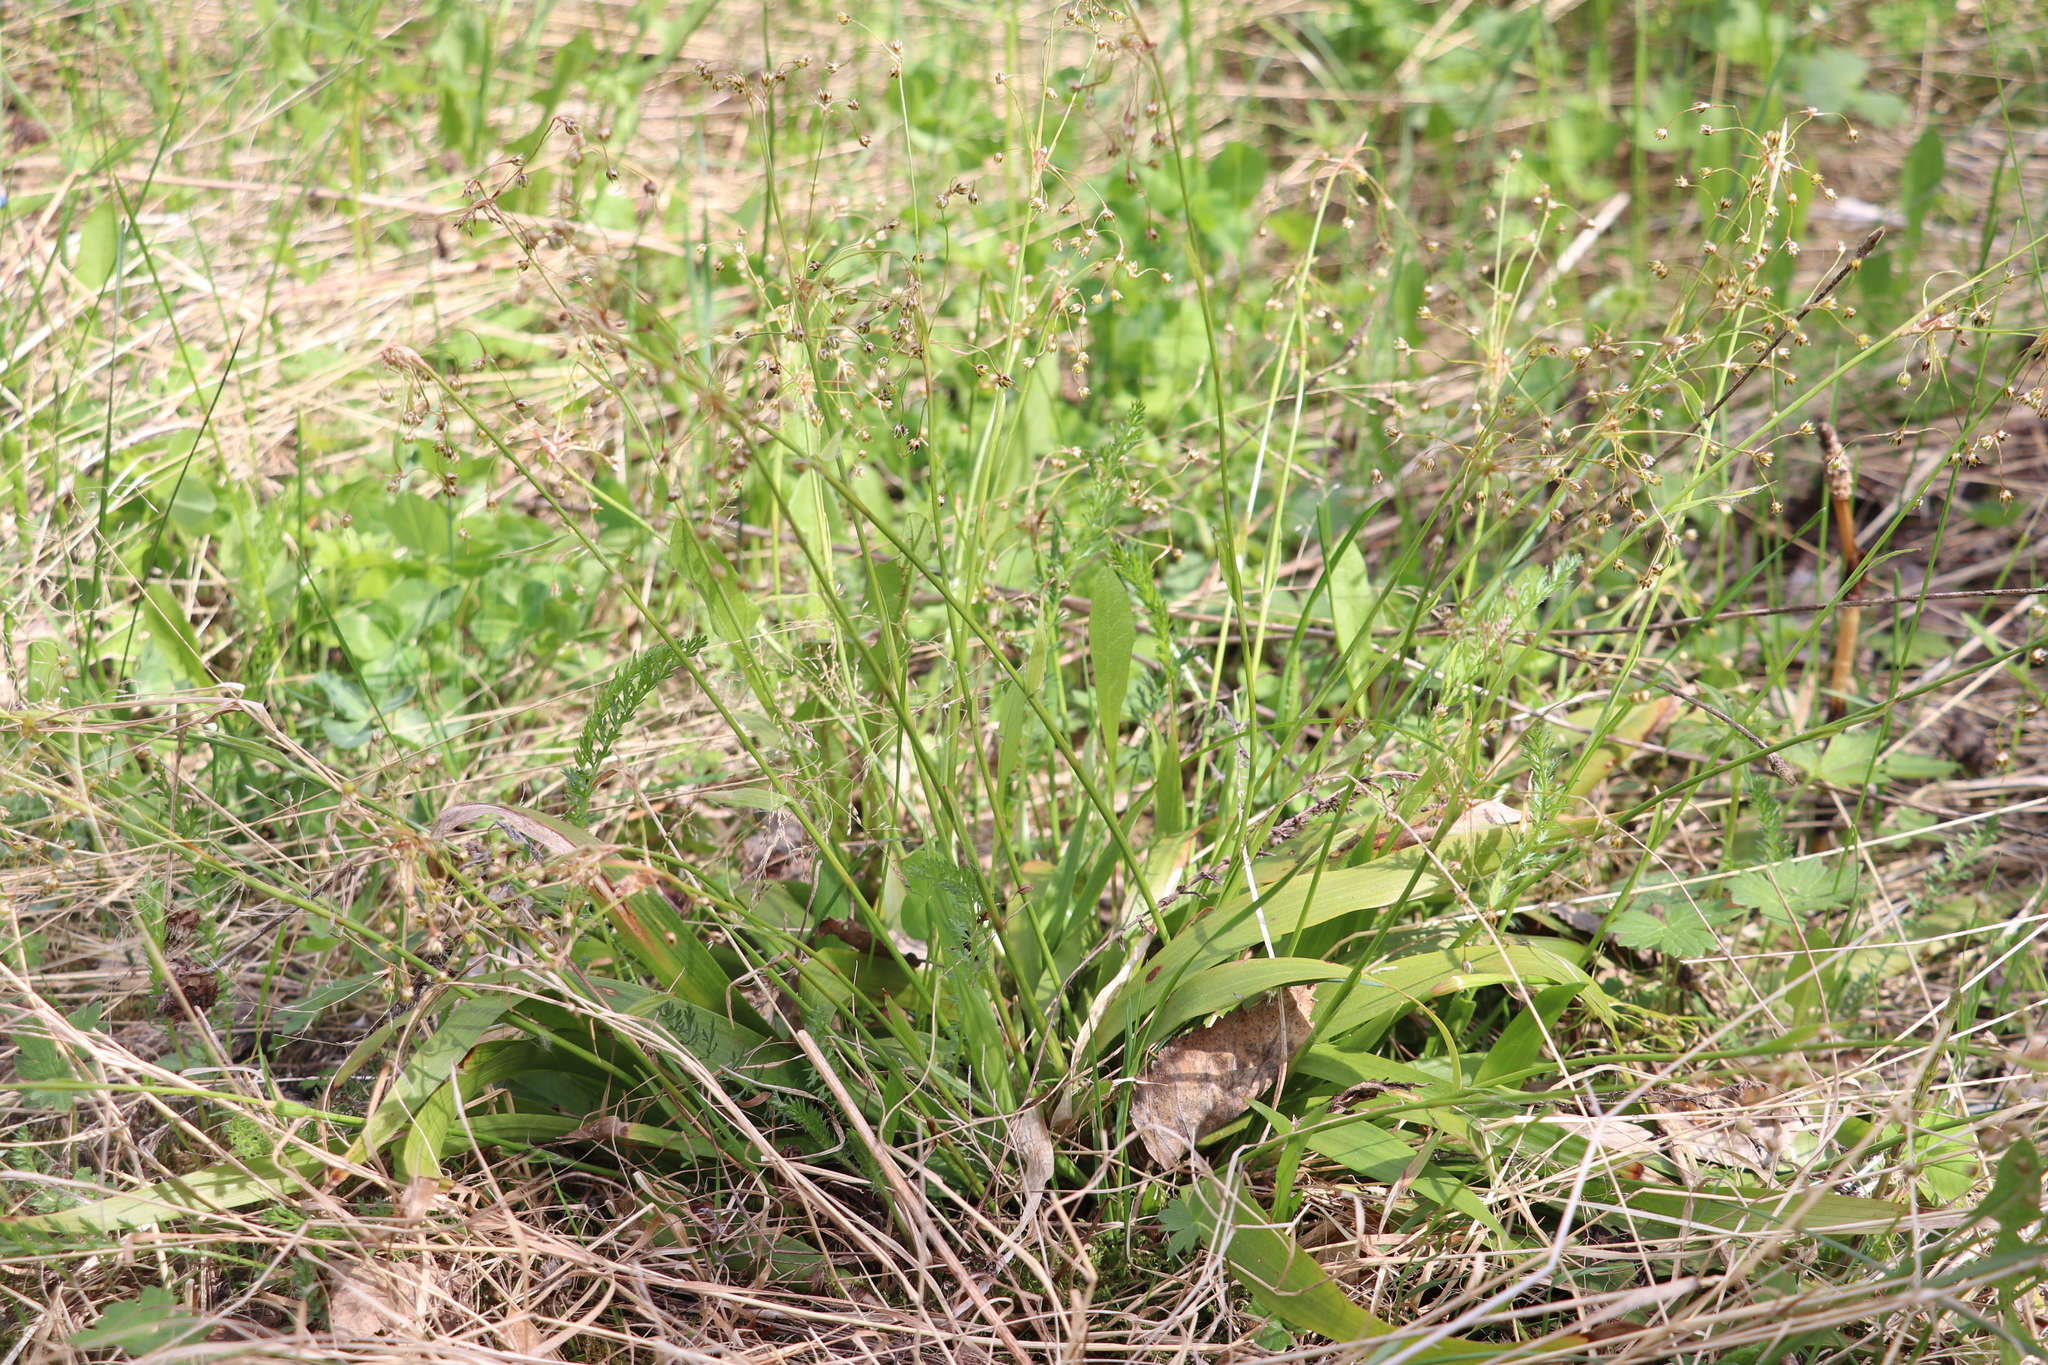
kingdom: Plantae
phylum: Tracheophyta
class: Liliopsida
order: Poales
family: Juncaceae
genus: Luzula
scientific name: Luzula pilosa
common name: Hairy wood-rush
